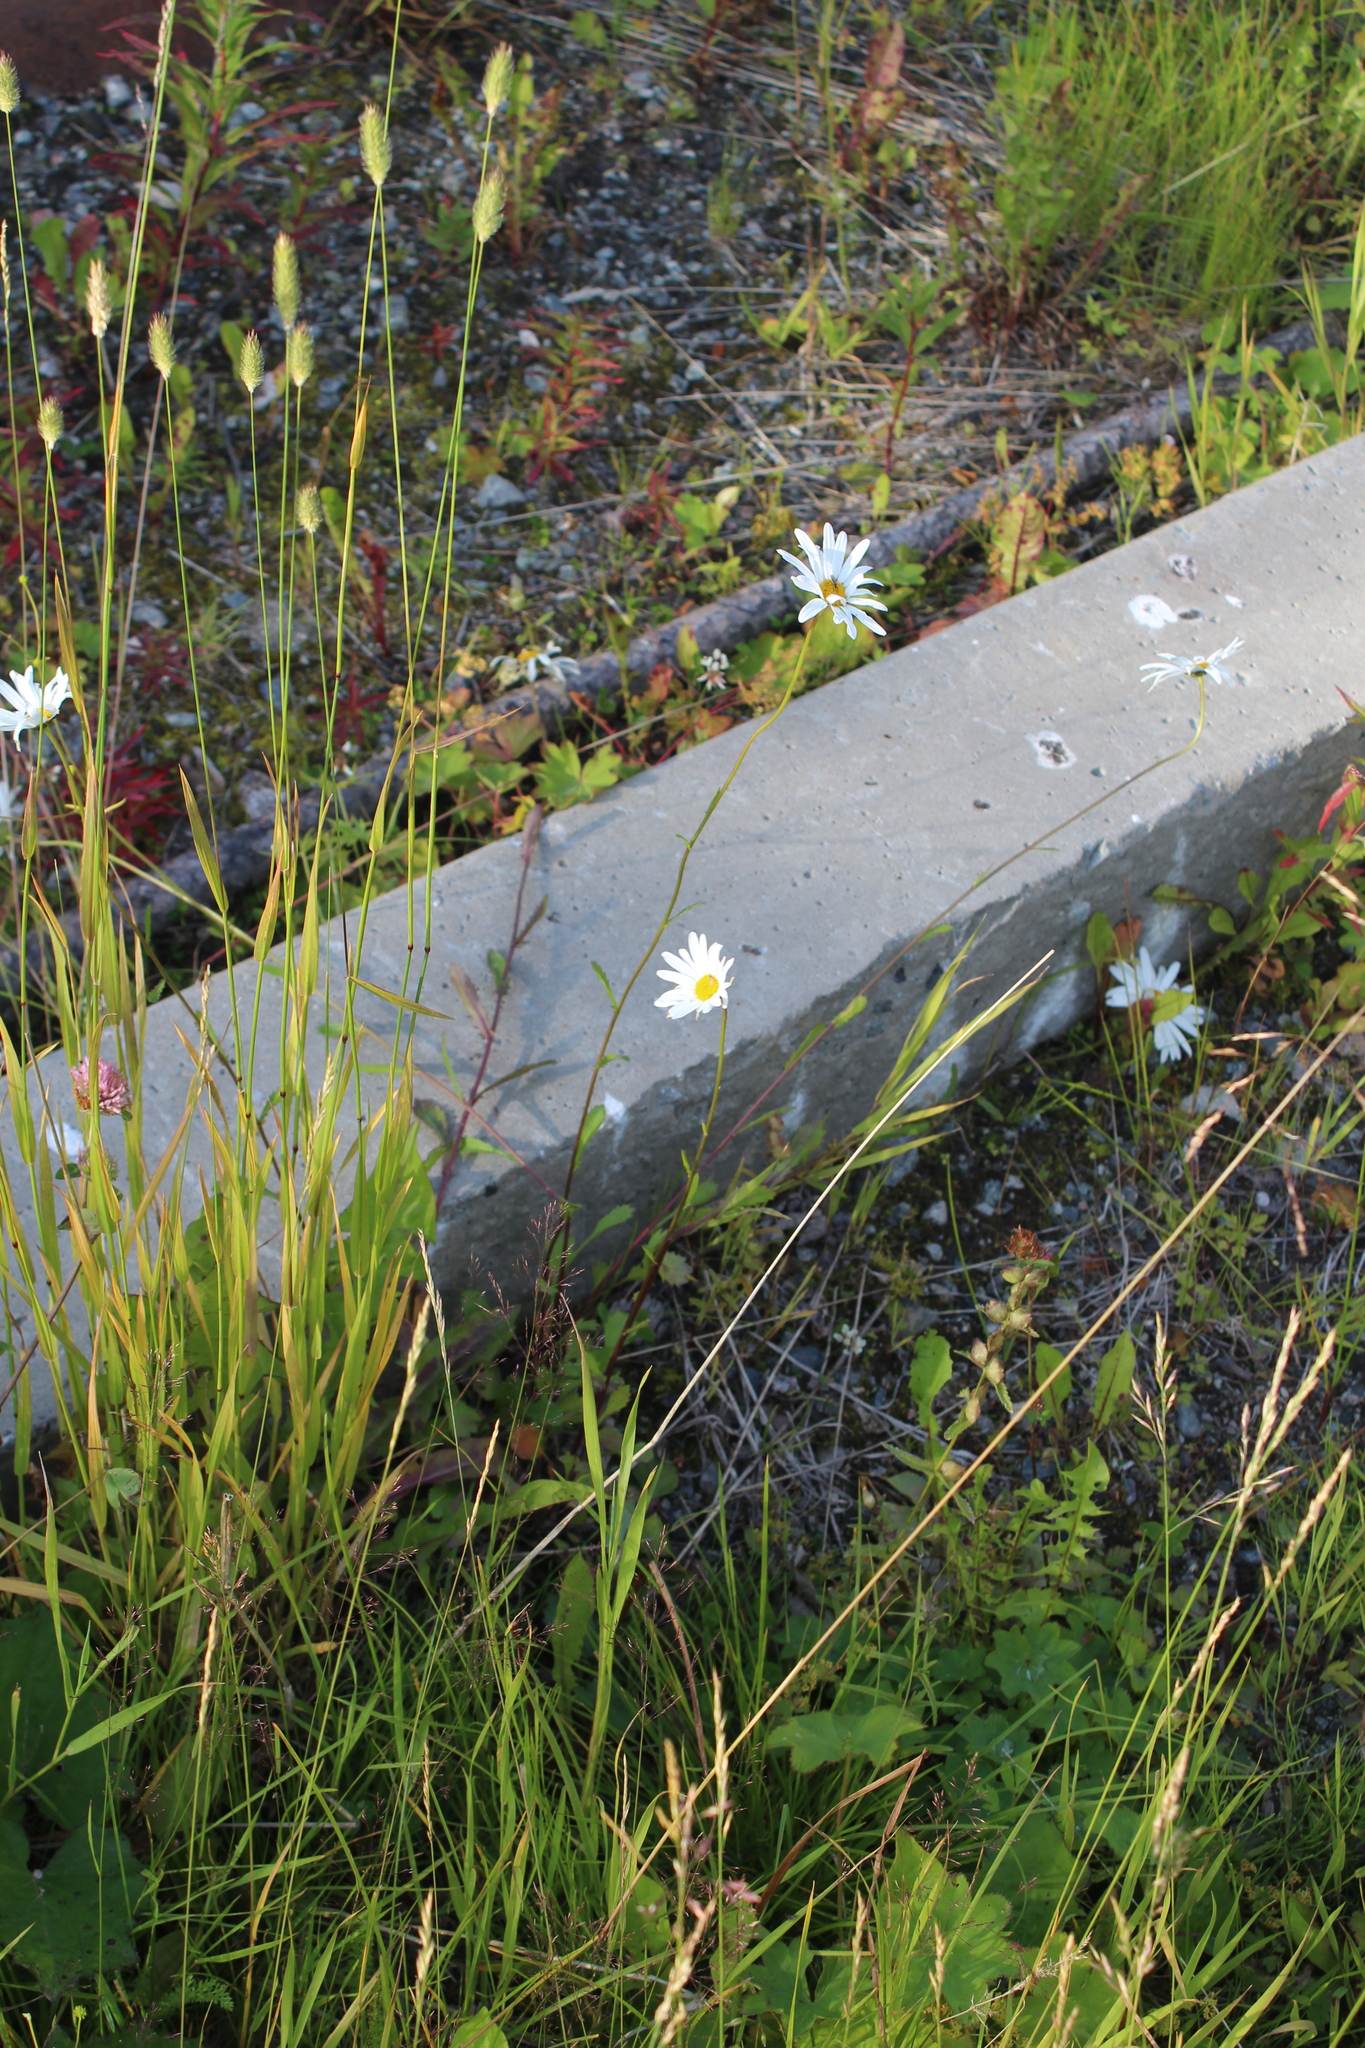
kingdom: Plantae
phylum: Tracheophyta
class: Magnoliopsida
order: Asterales
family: Asteraceae
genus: Leucanthemum
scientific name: Leucanthemum vulgare
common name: Oxeye daisy
